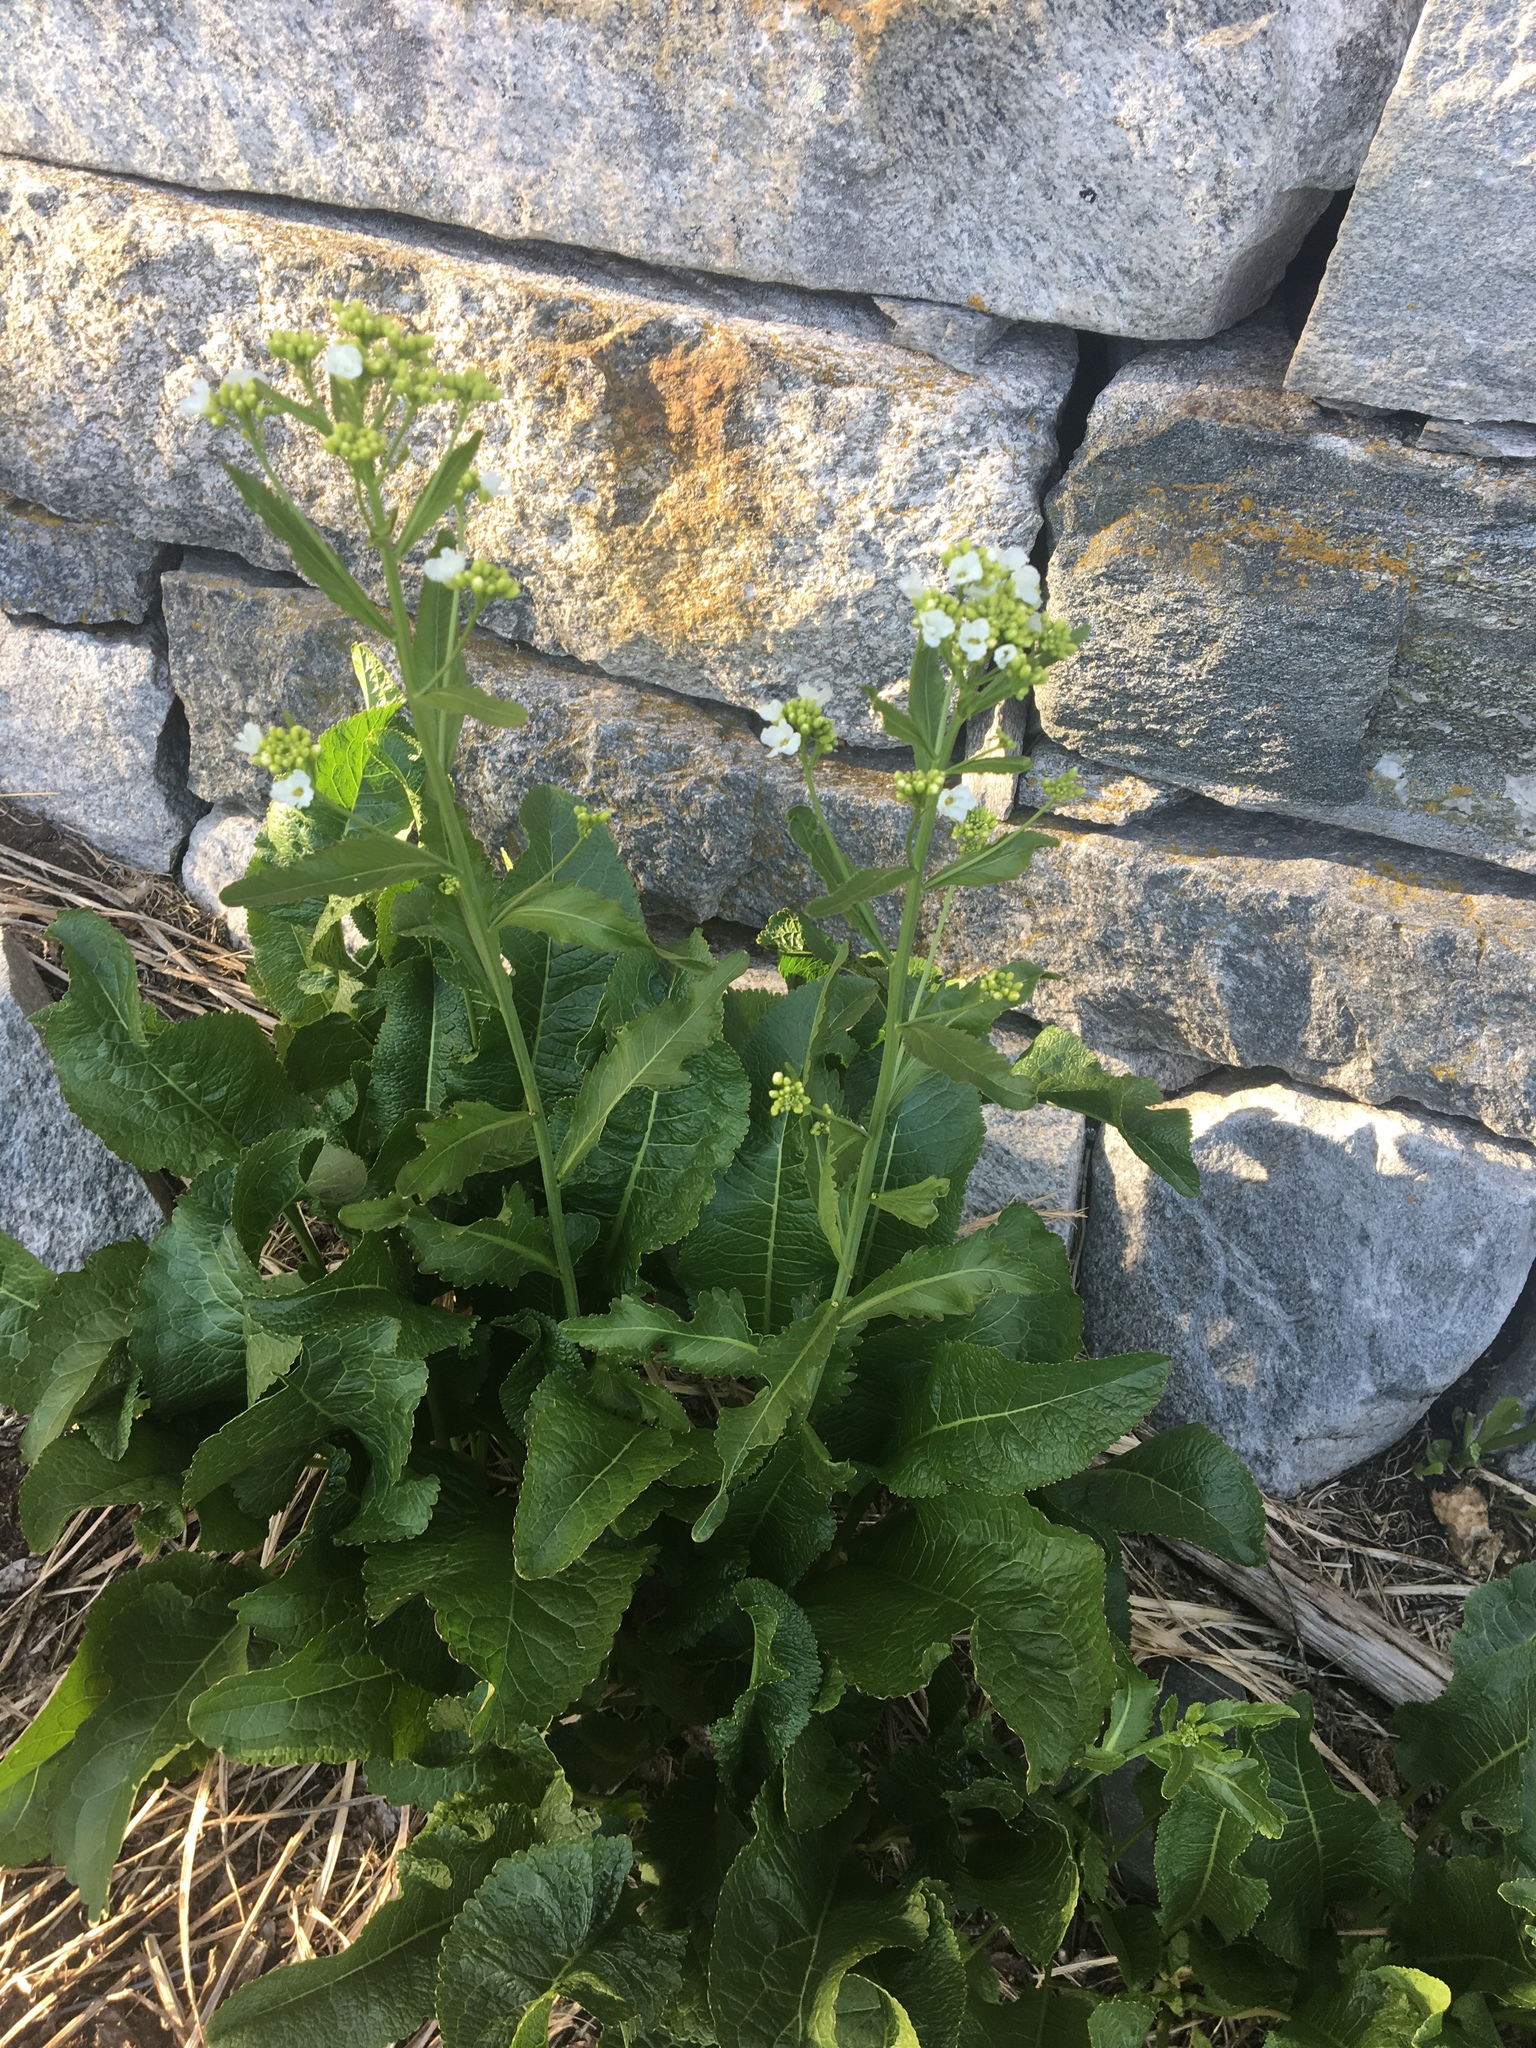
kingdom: Plantae
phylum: Tracheophyta
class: Magnoliopsida
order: Brassicales
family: Brassicaceae
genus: Armoracia
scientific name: Armoracia rusticana
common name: Horseradish
